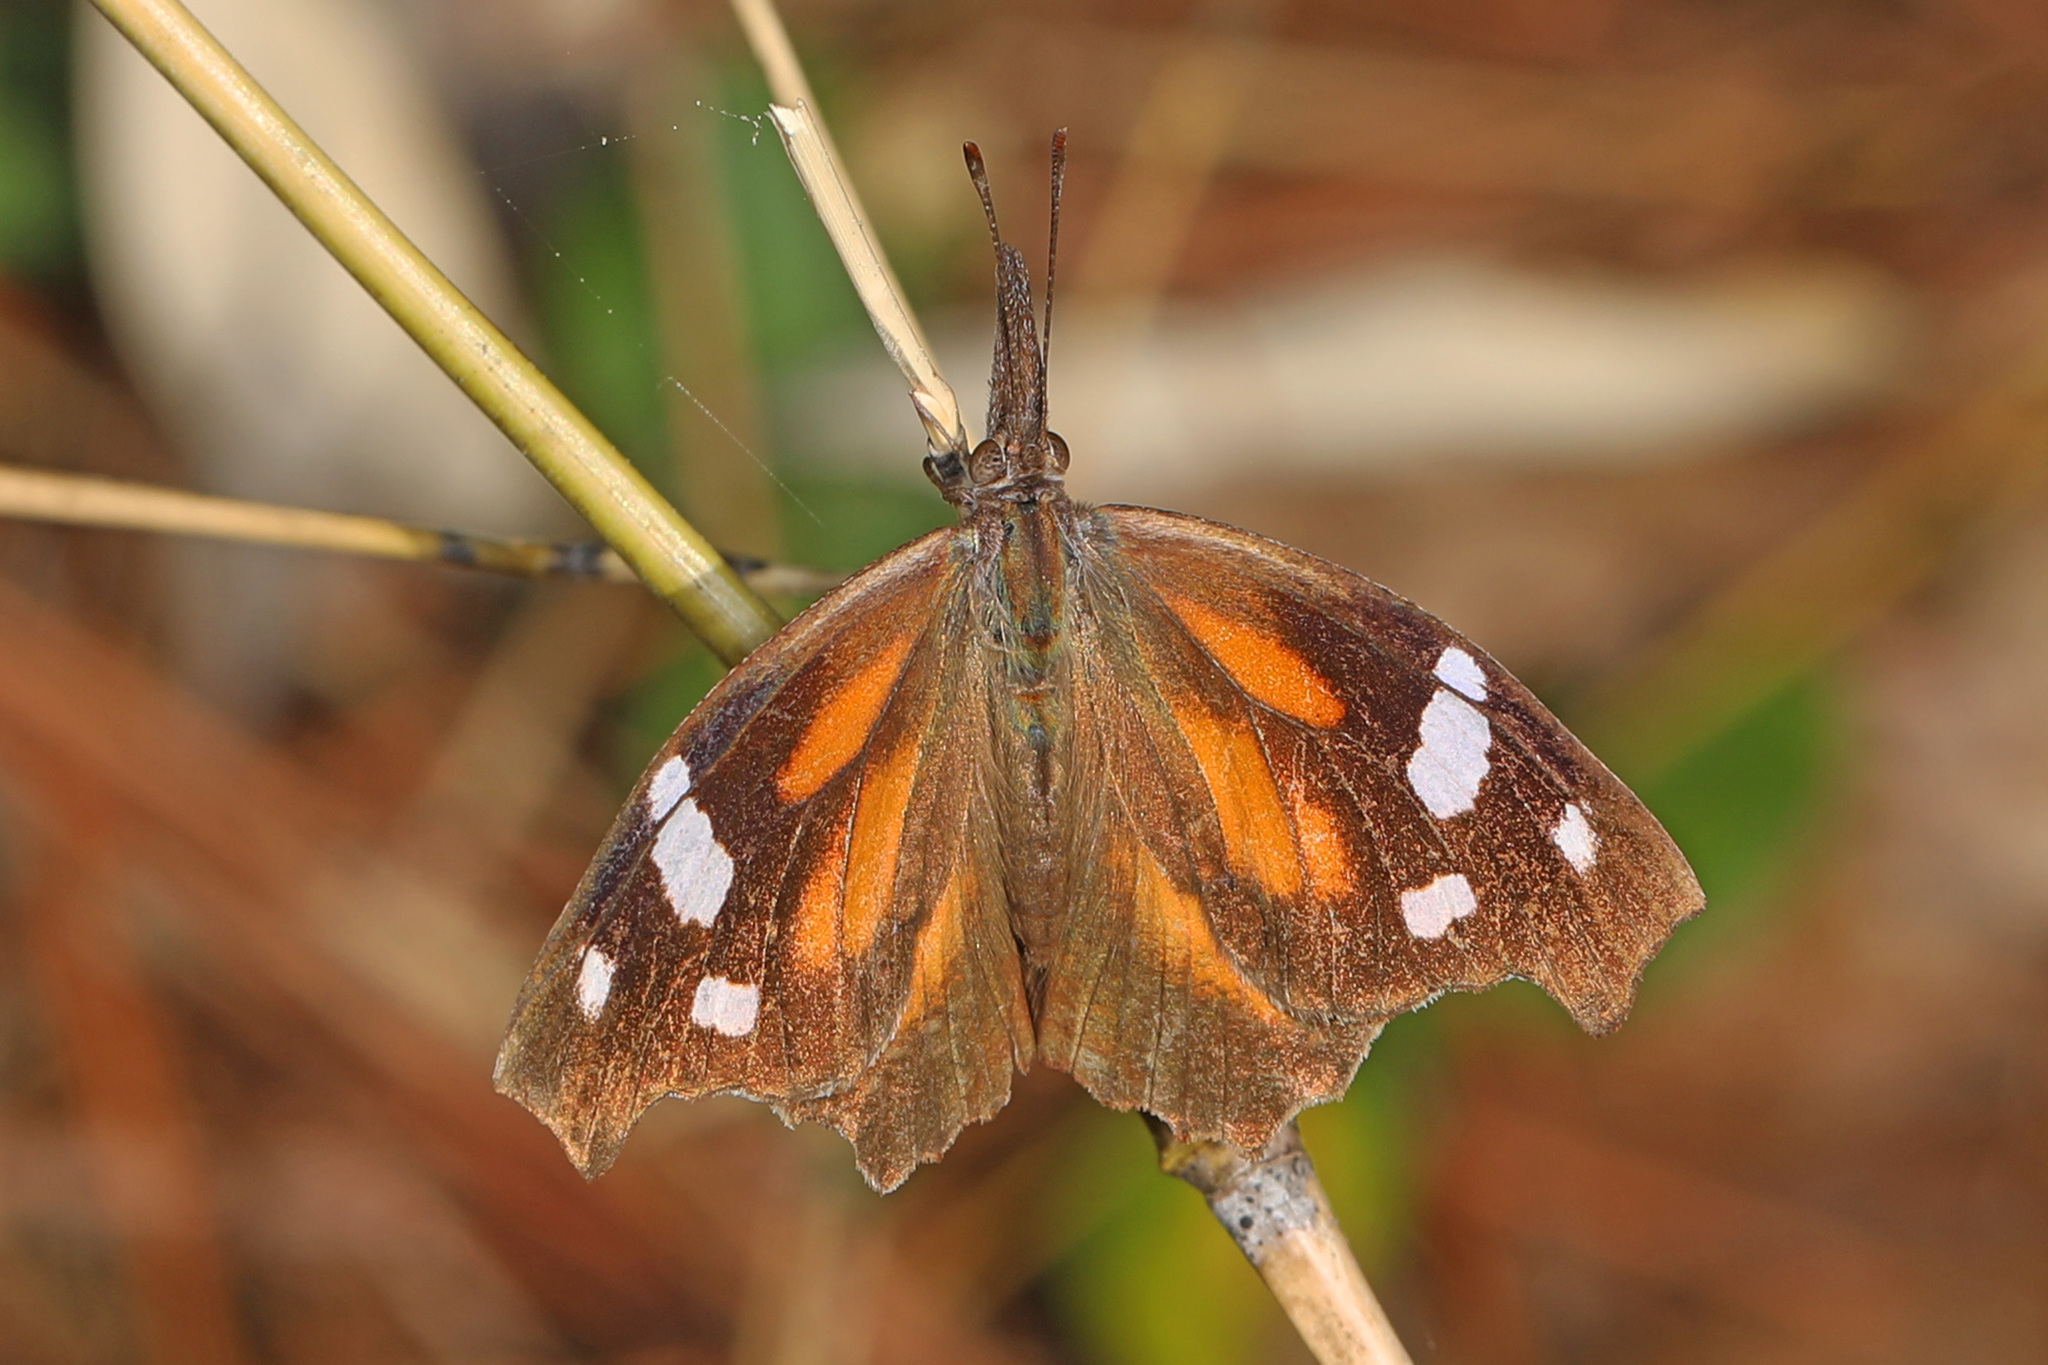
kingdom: Animalia
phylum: Arthropoda
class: Insecta
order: Lepidoptera
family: Nymphalidae
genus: Libytheana
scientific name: Libytheana carinenta
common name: American snout
